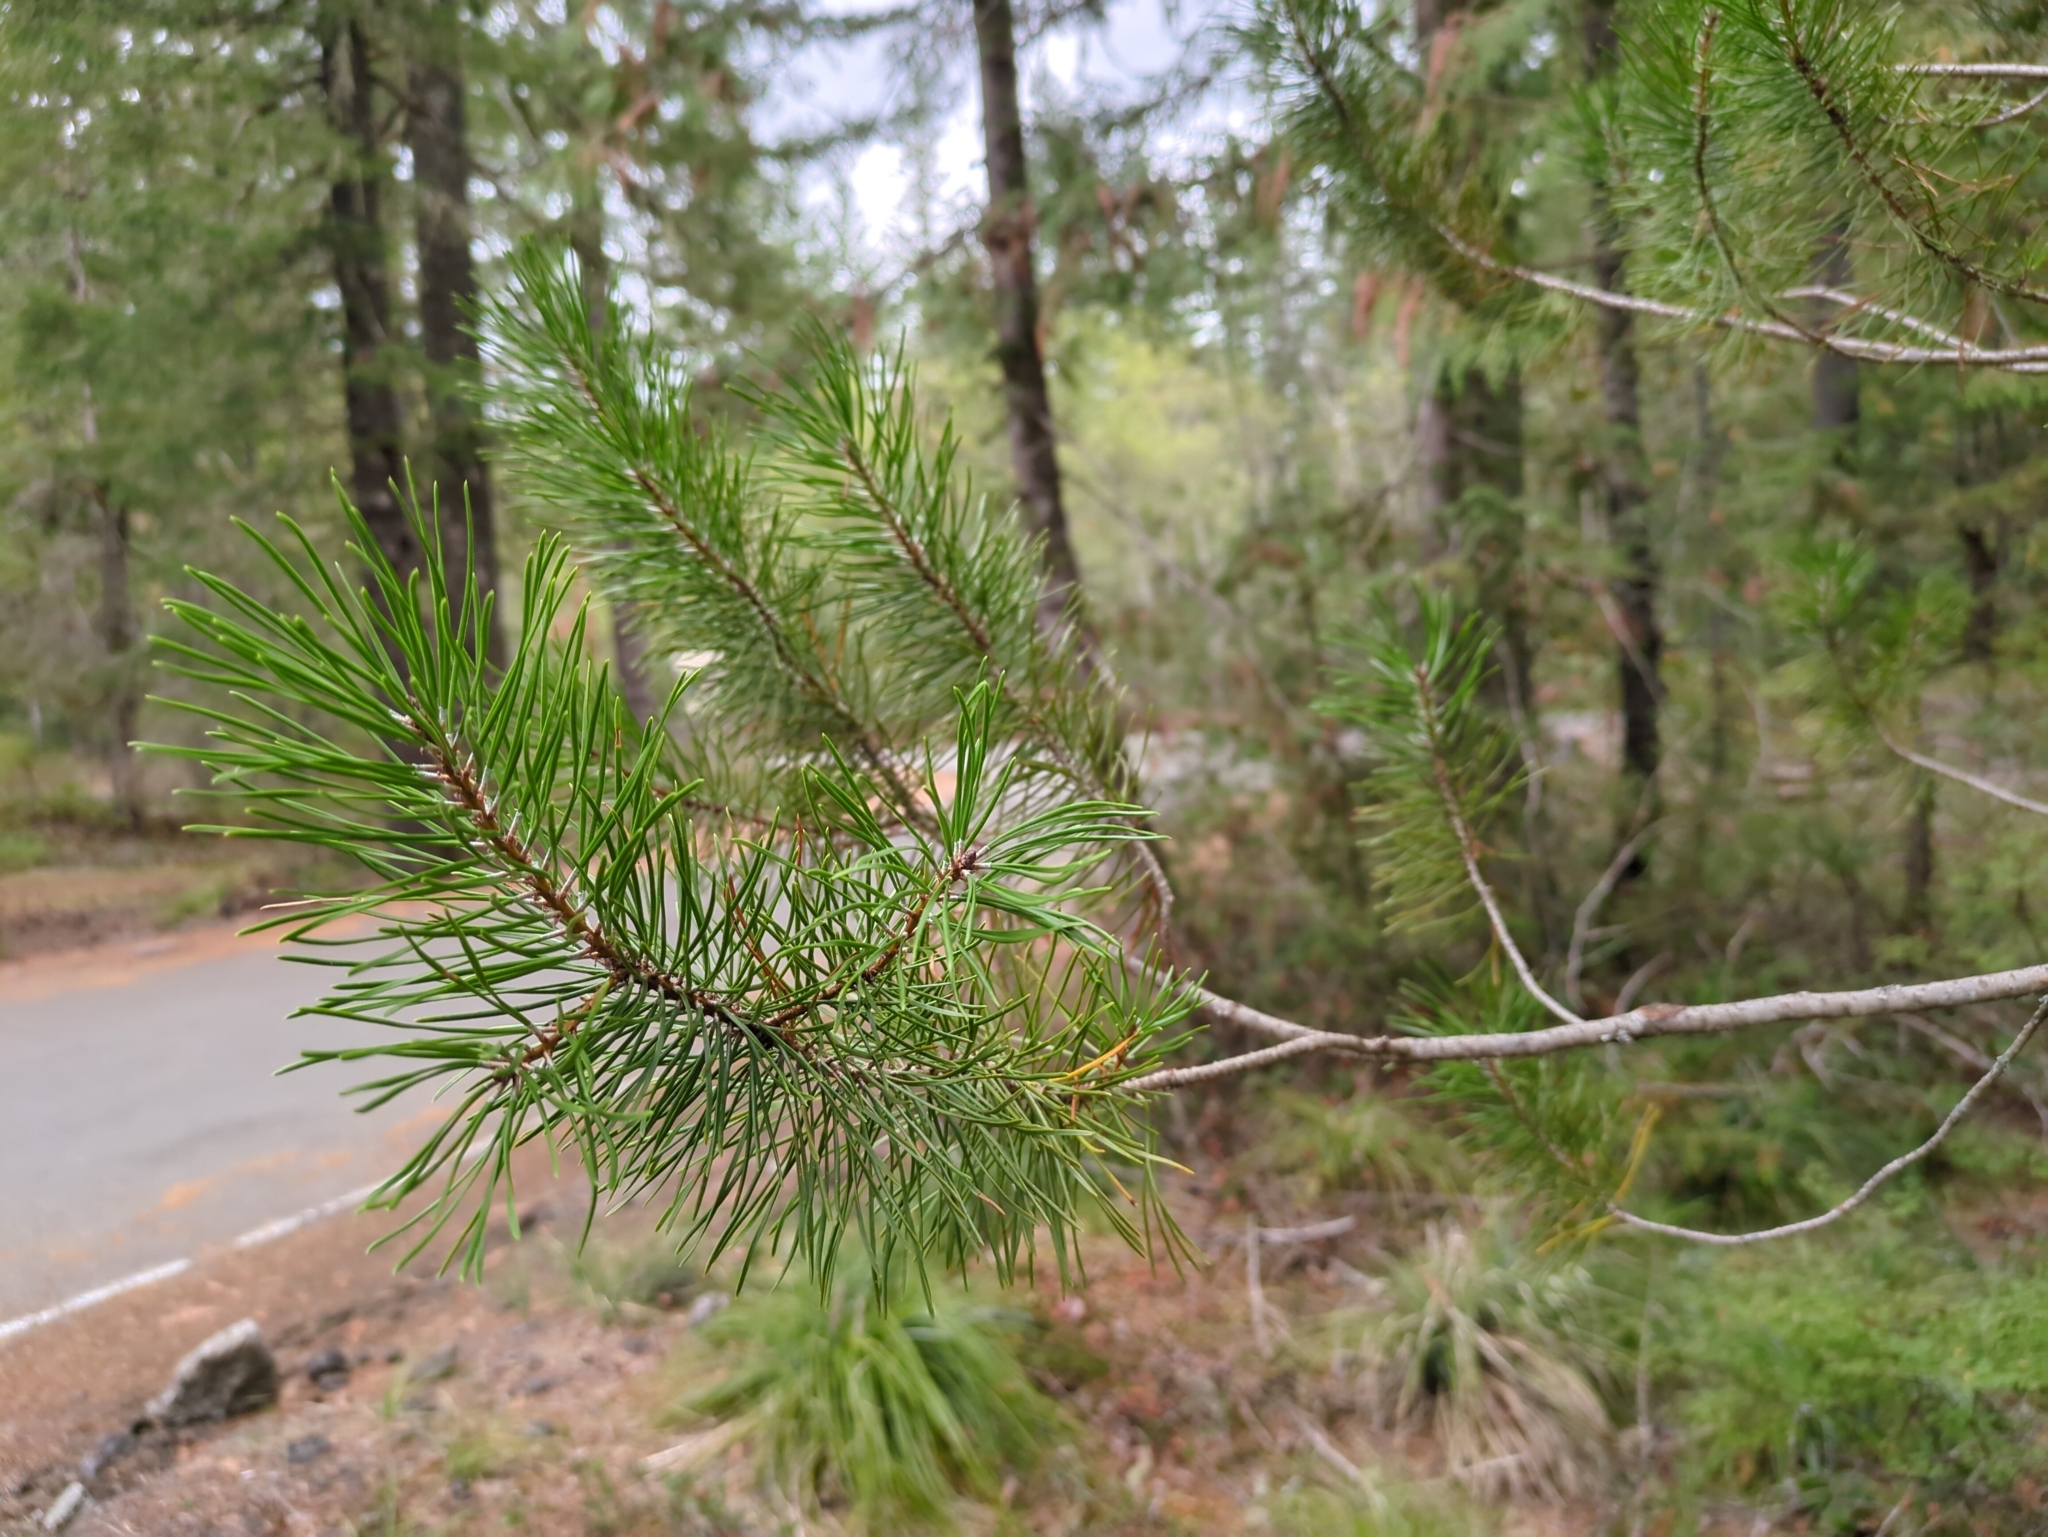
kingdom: Plantae
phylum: Tracheophyta
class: Pinopsida
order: Pinales
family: Pinaceae
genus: Pinus
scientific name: Pinus contorta
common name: Lodgepole pine
